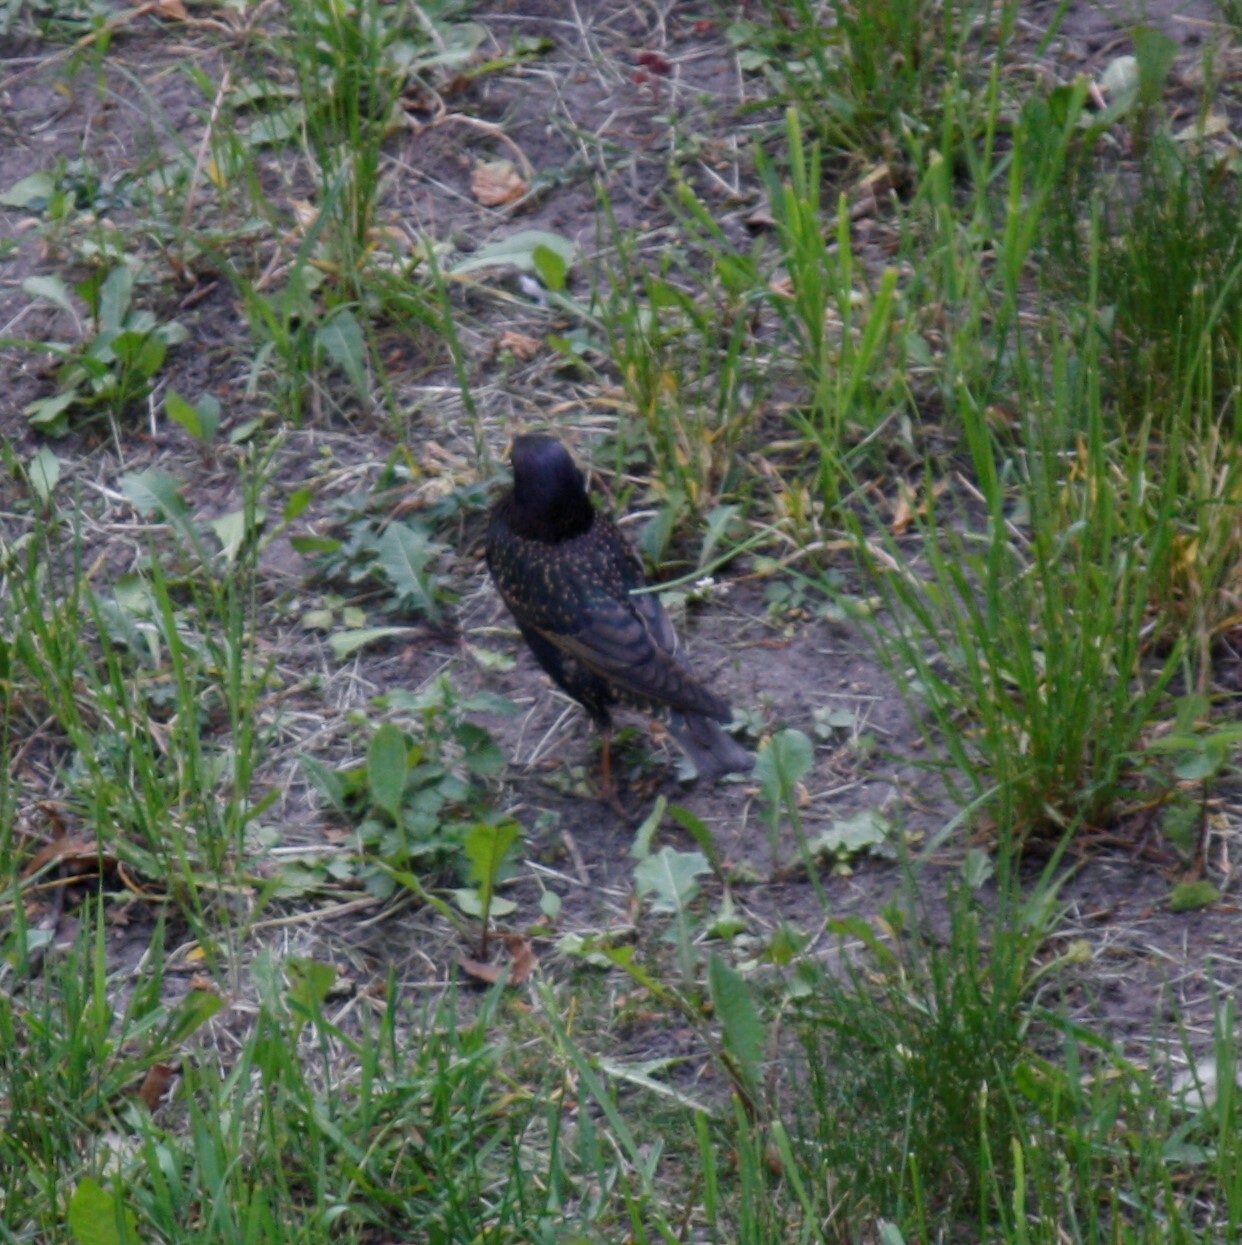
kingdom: Animalia
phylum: Chordata
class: Aves
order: Passeriformes
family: Sturnidae
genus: Sturnus
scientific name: Sturnus vulgaris
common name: Common starling
